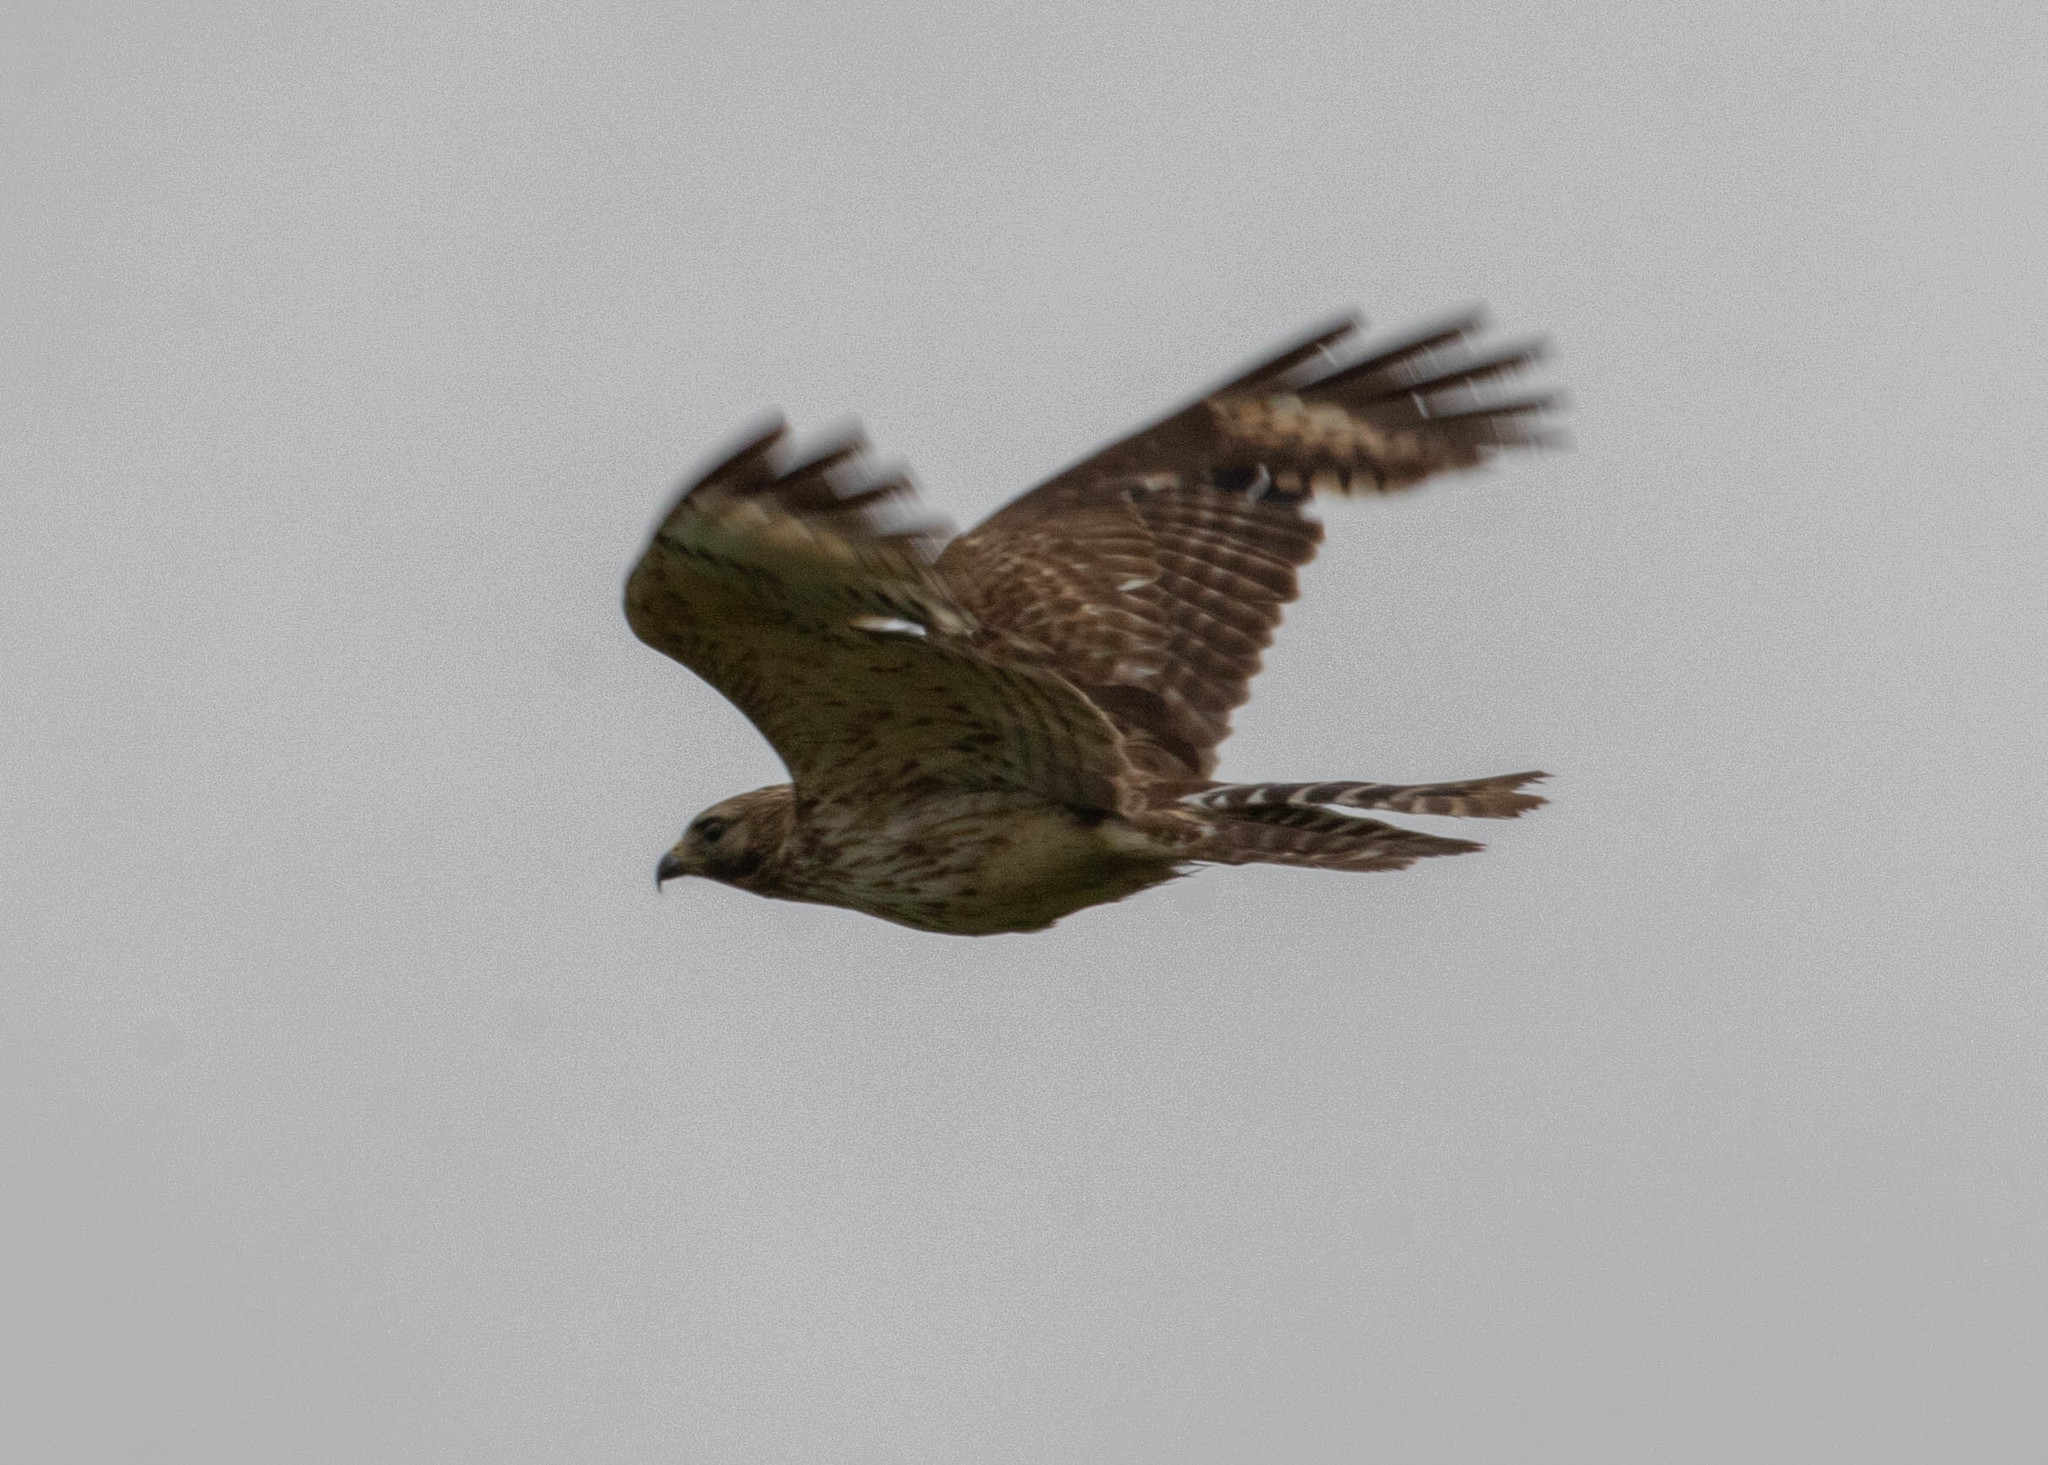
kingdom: Animalia
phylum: Chordata
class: Aves
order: Accipitriformes
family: Accipitridae
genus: Buteo
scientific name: Buteo lineatus
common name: Red-shouldered hawk
